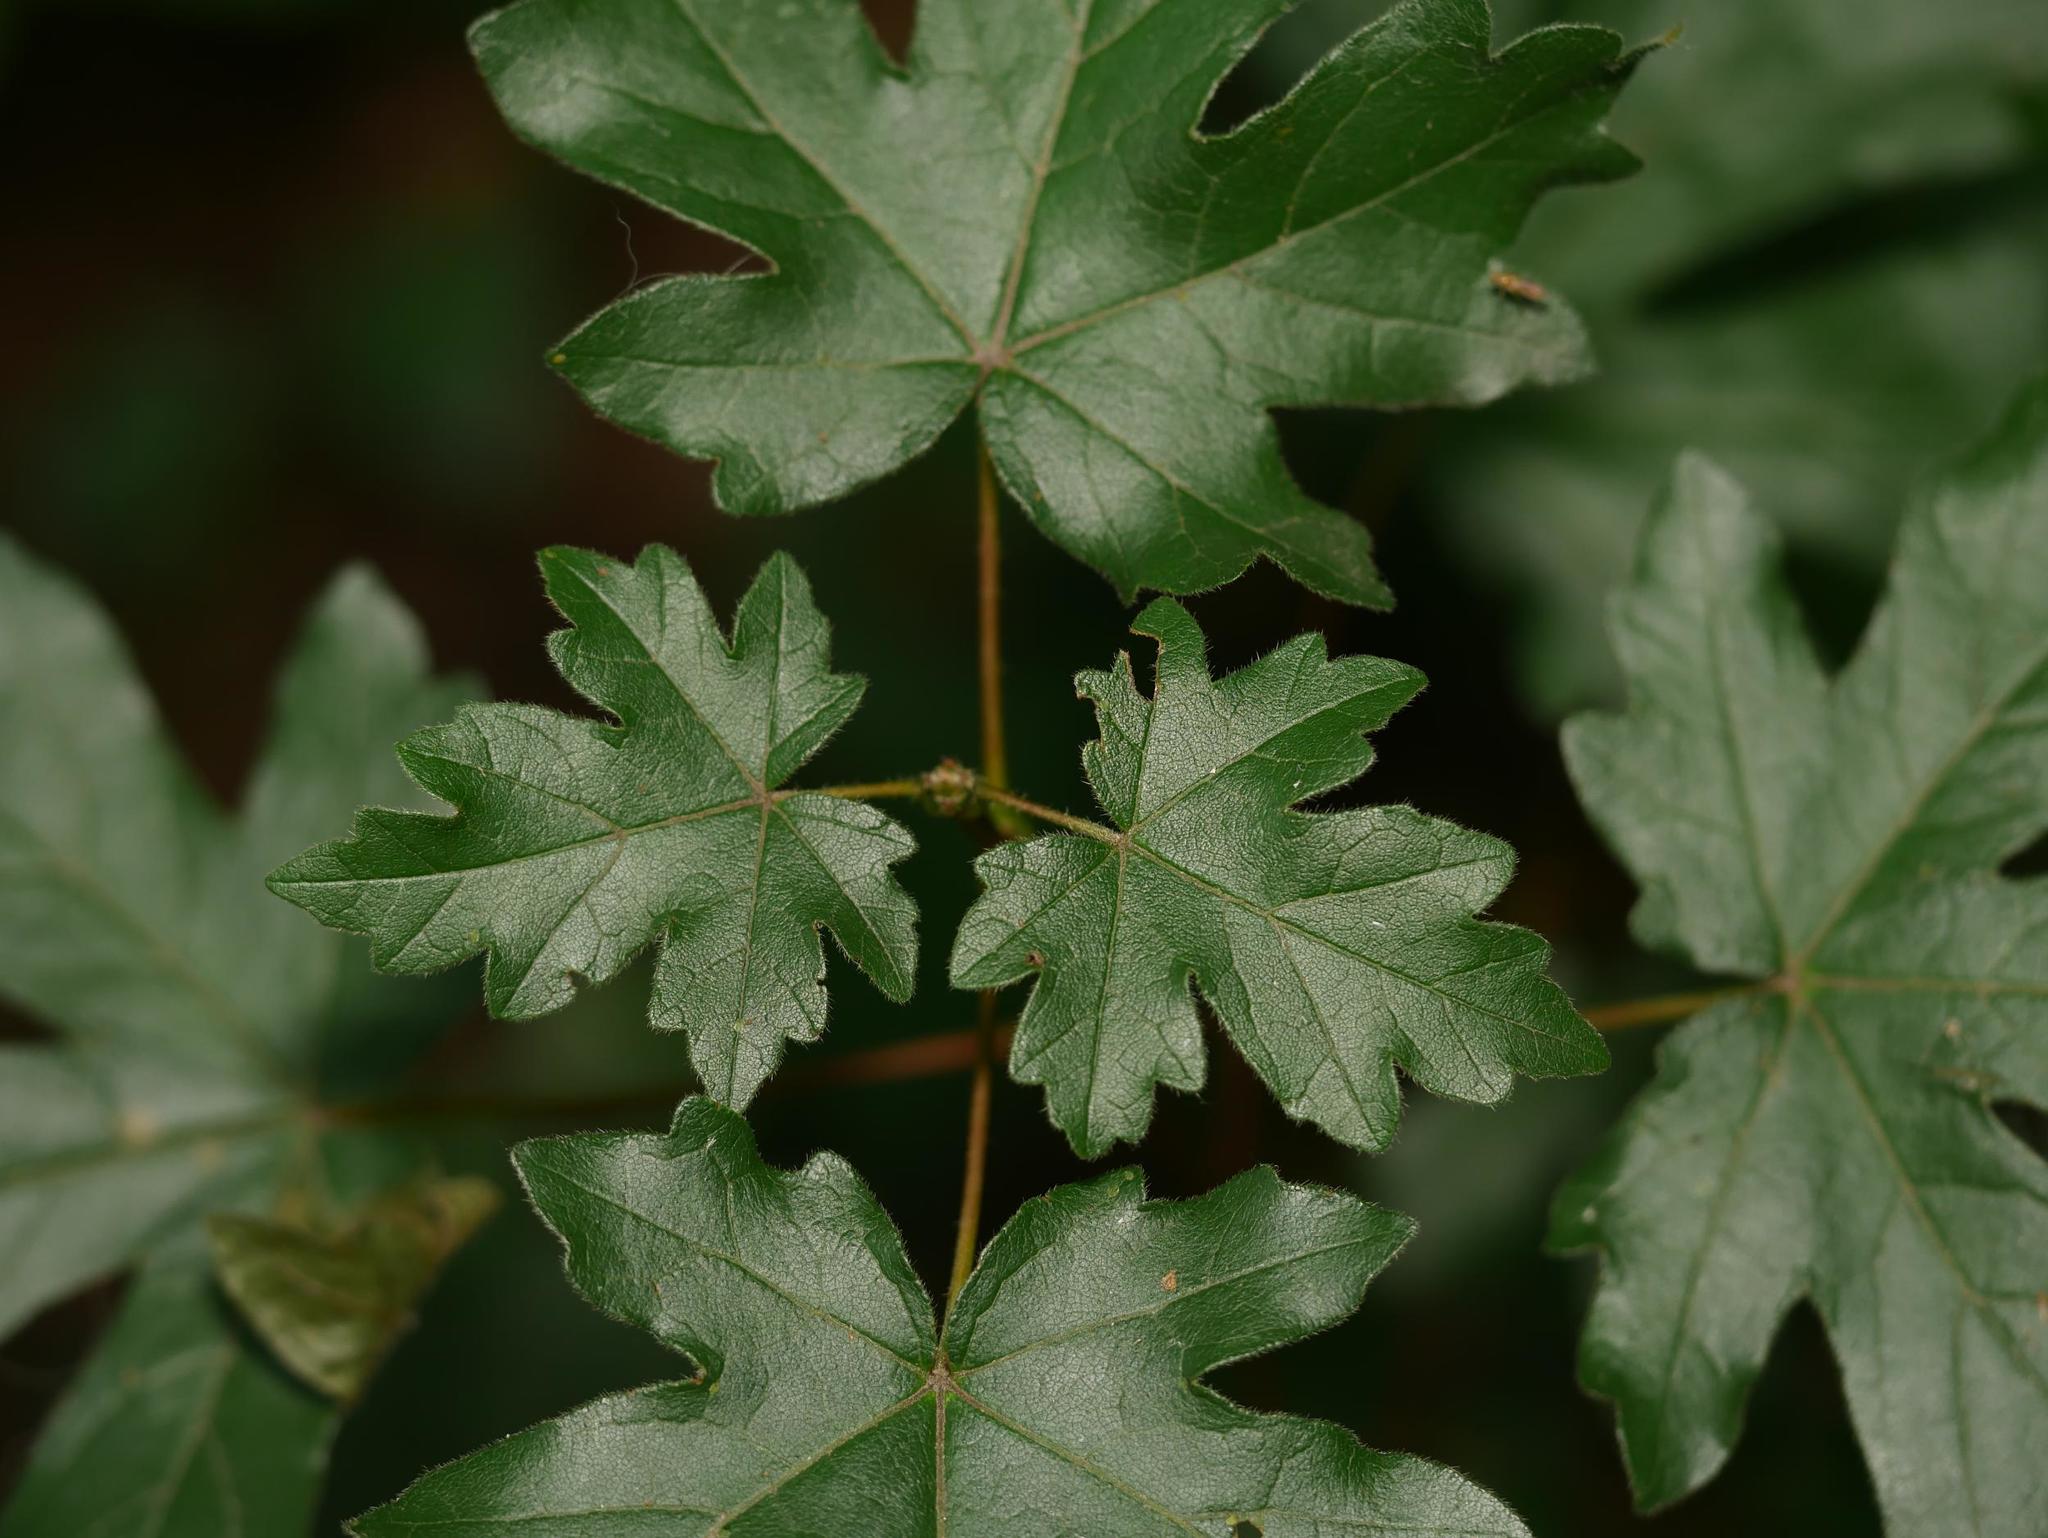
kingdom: Plantae
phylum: Tracheophyta
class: Magnoliopsida
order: Sapindales
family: Sapindaceae
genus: Acer
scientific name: Acer campestre
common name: Field maple
